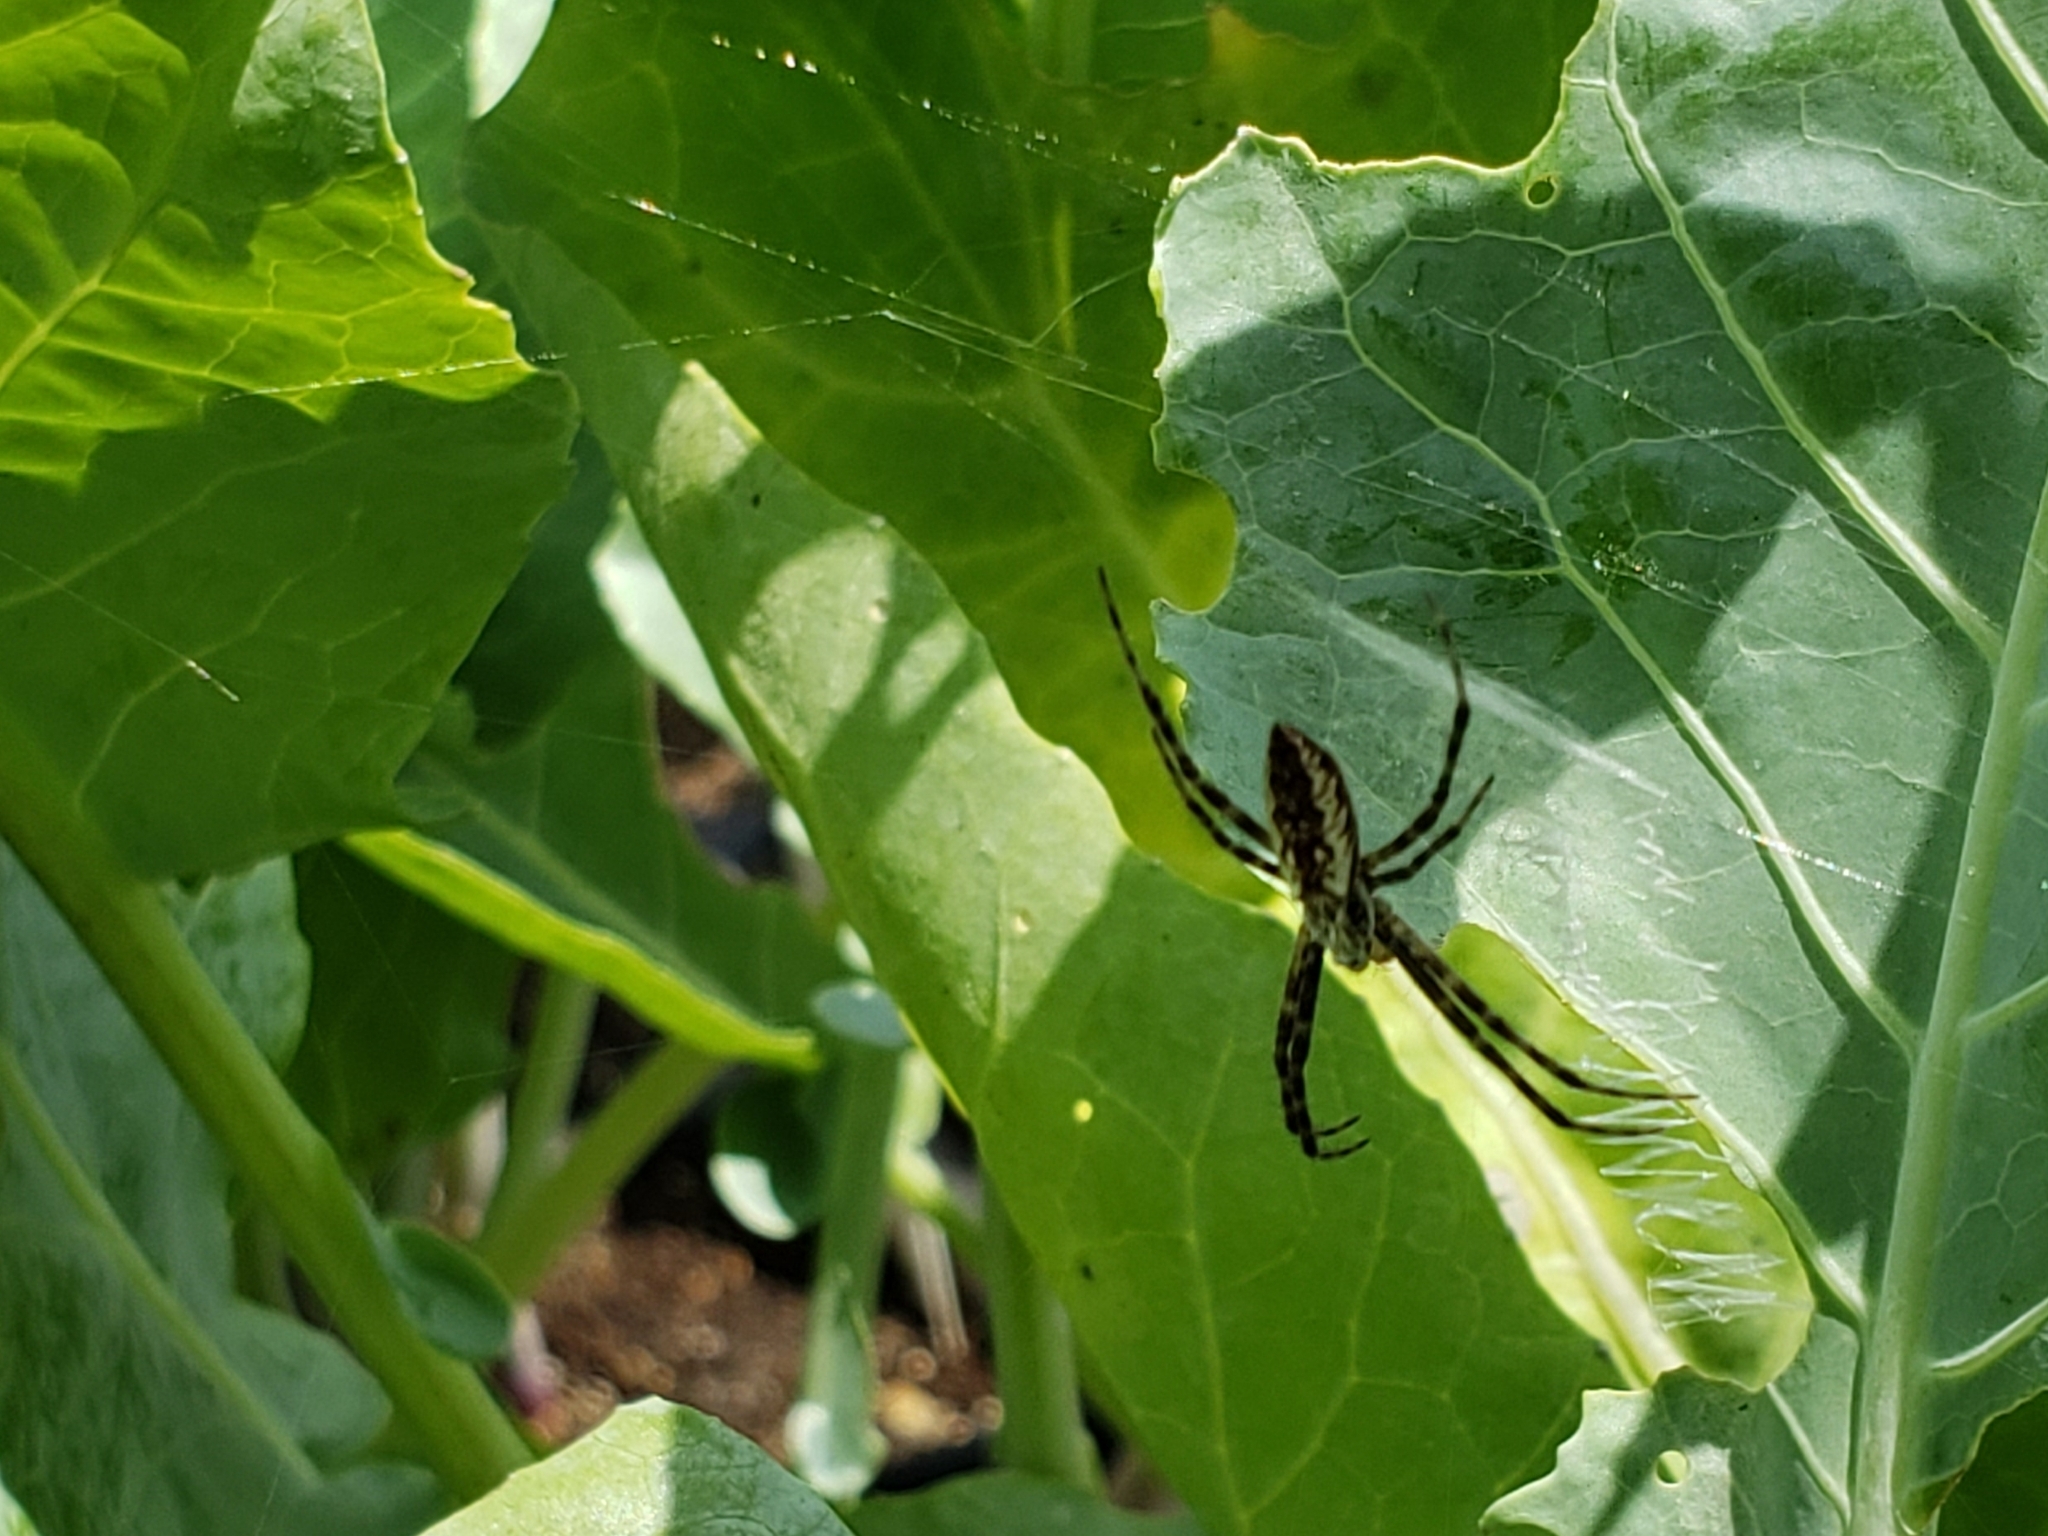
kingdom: Animalia
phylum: Arthropoda
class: Arachnida
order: Araneae
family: Araneidae
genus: Argiope
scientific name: Argiope aurantia
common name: Orb weavers
